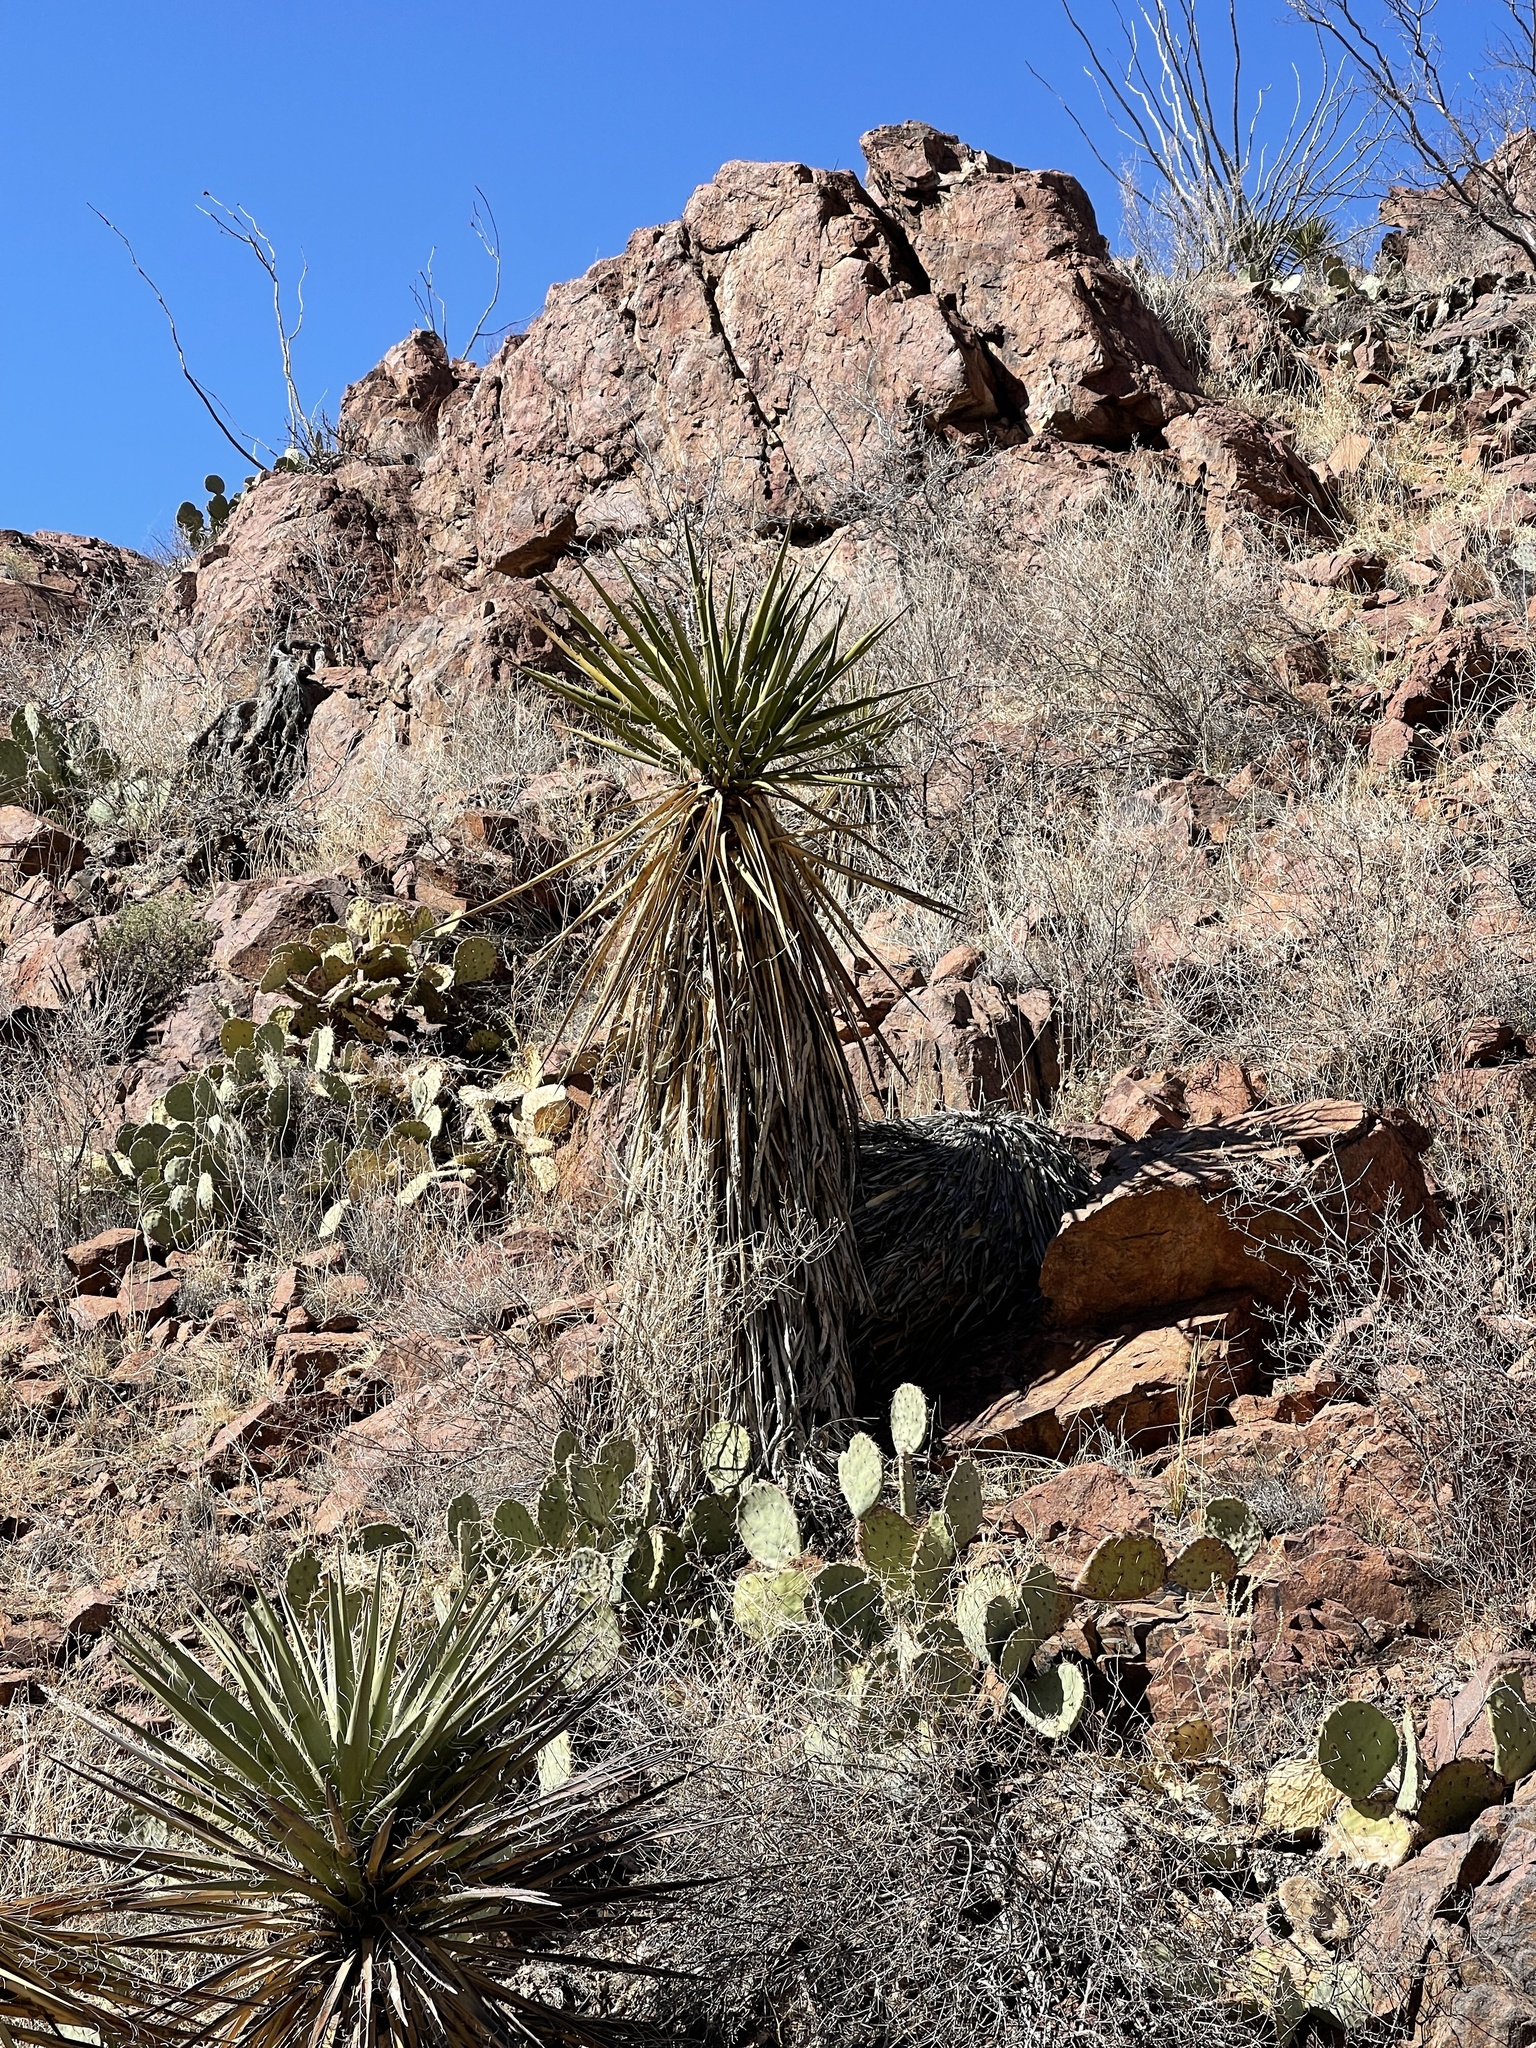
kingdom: Plantae
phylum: Tracheophyta
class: Liliopsida
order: Asparagales
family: Asparagaceae
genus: Yucca
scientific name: Yucca treculiana
